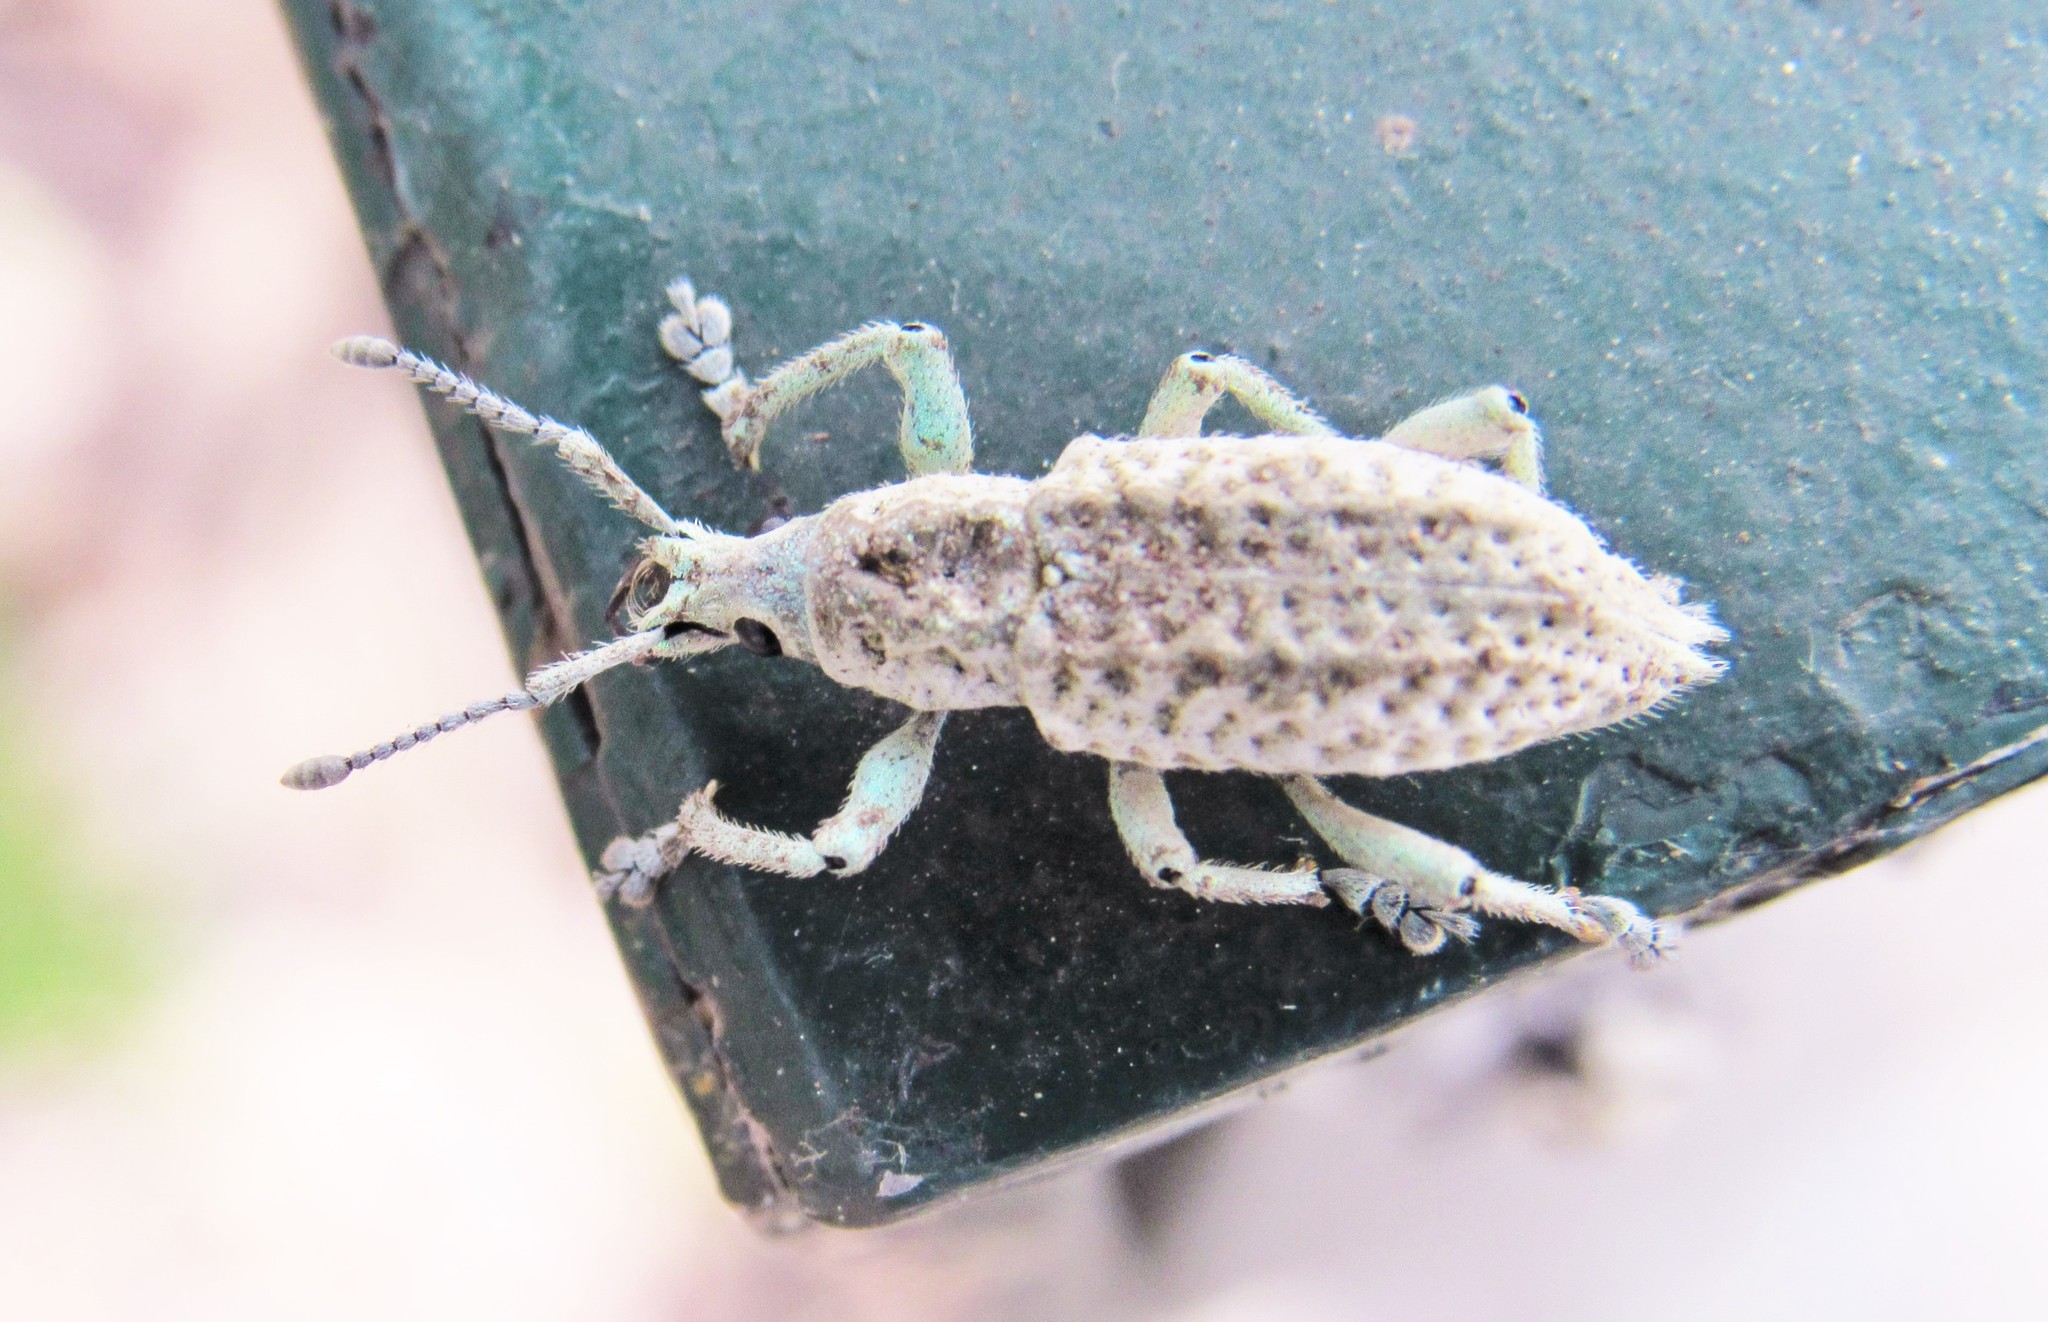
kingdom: Animalia
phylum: Arthropoda
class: Insecta
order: Coleoptera
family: Curculionidae
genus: Compsus
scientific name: Compsus canescens
